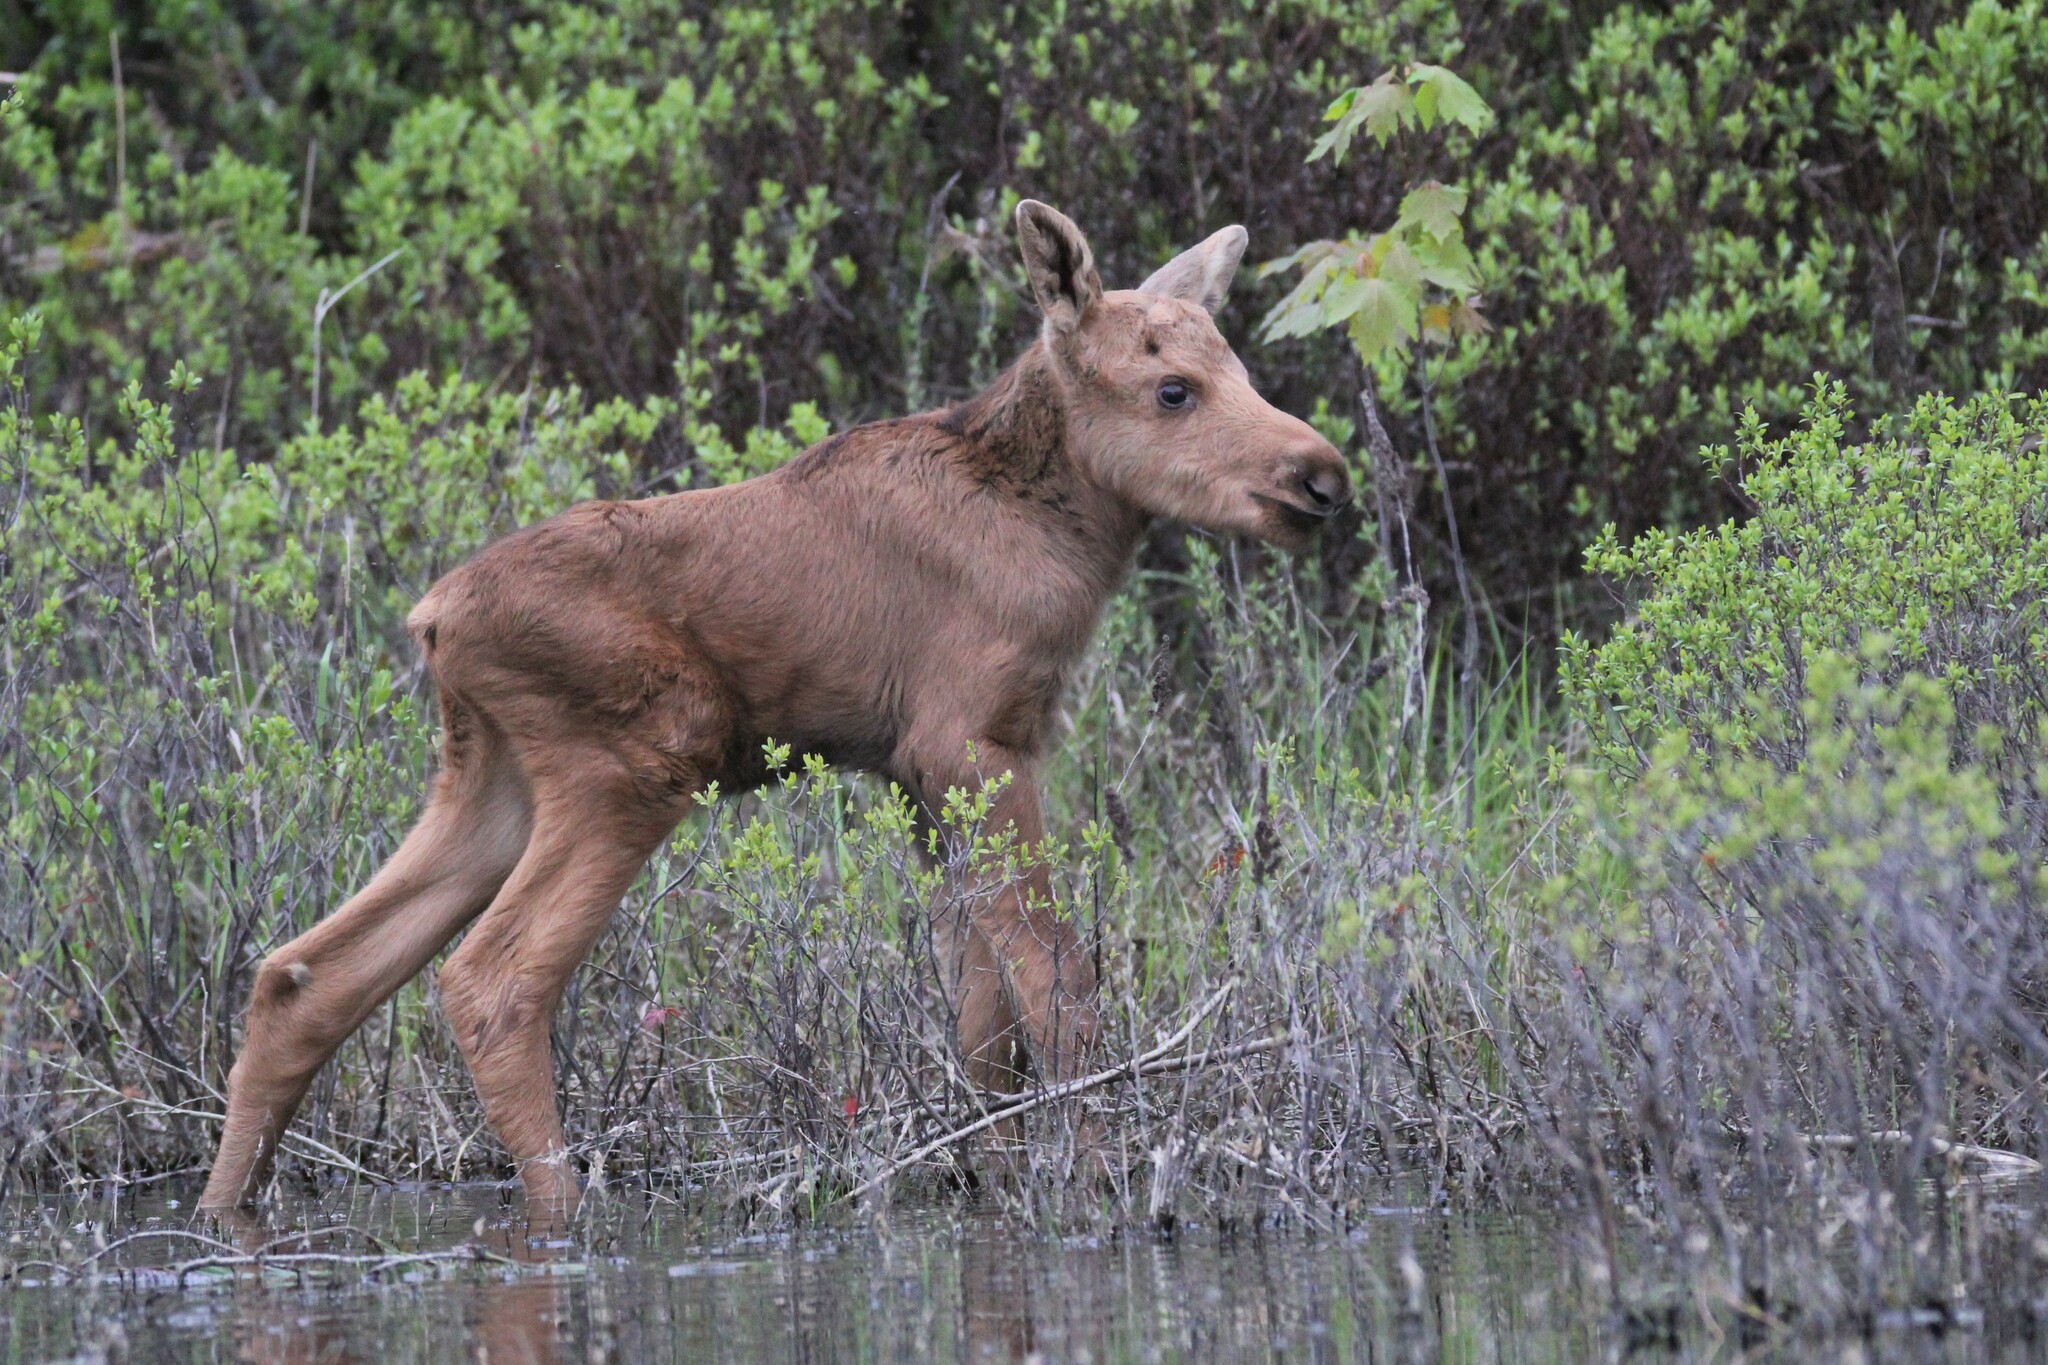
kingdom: Animalia
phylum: Chordata
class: Mammalia
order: Artiodactyla
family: Cervidae
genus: Alces
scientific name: Alces alces
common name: Moose
